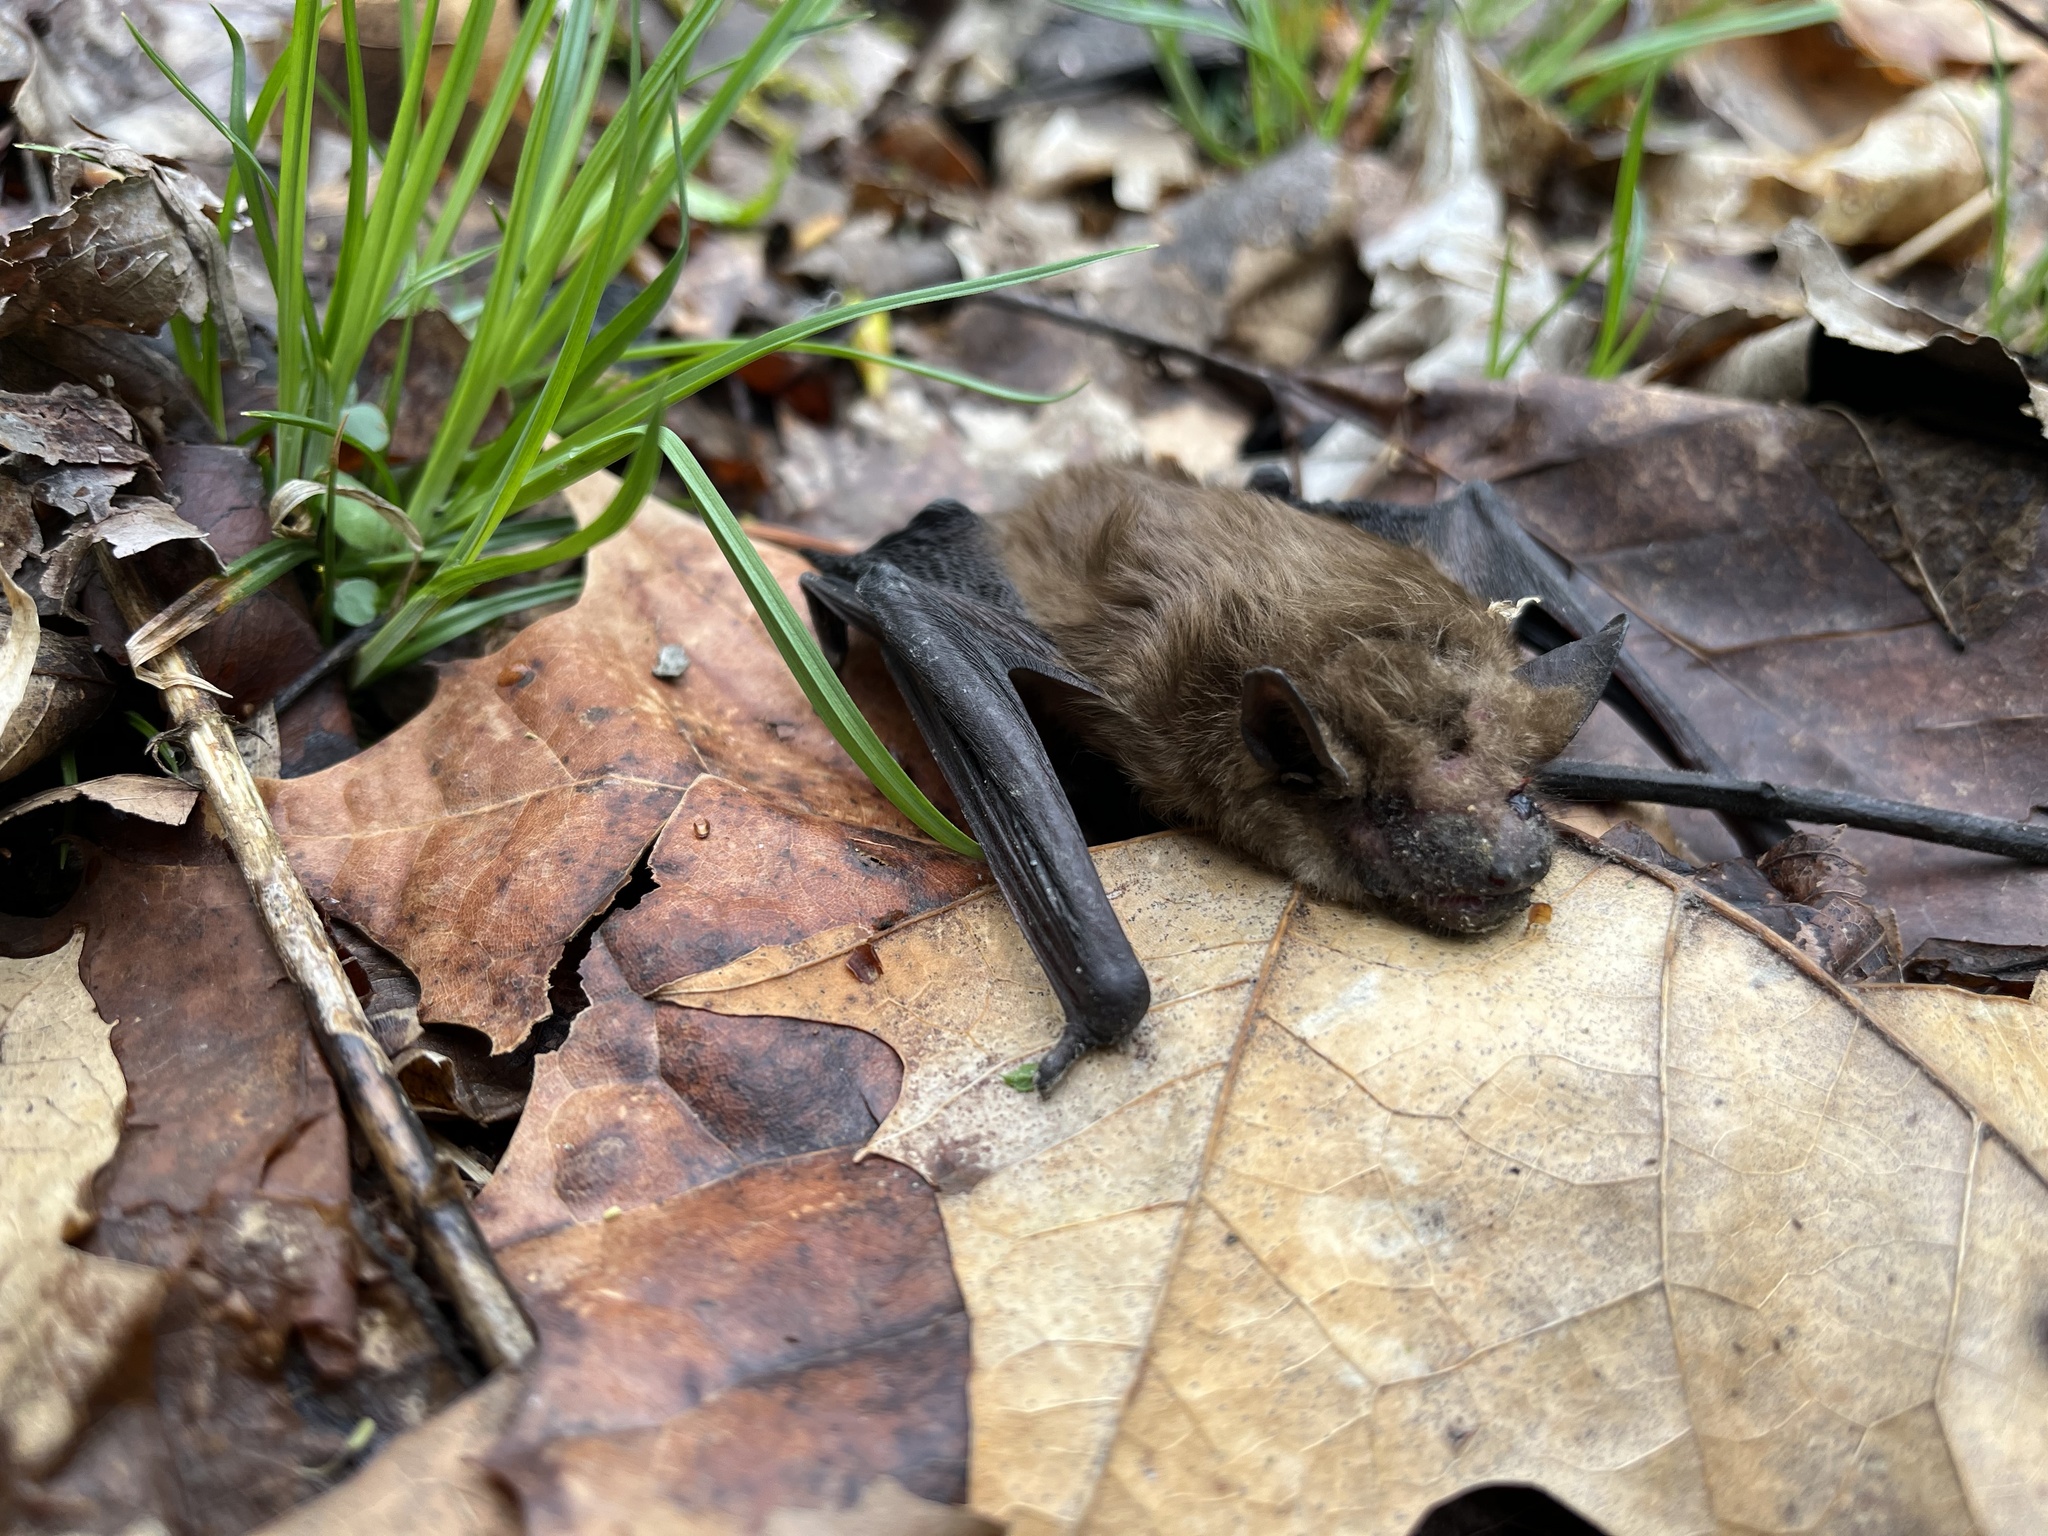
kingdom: Animalia
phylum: Chordata
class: Mammalia
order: Chiroptera
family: Vespertilionidae
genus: Eptesicus
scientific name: Eptesicus fuscus
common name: Big brown bat
